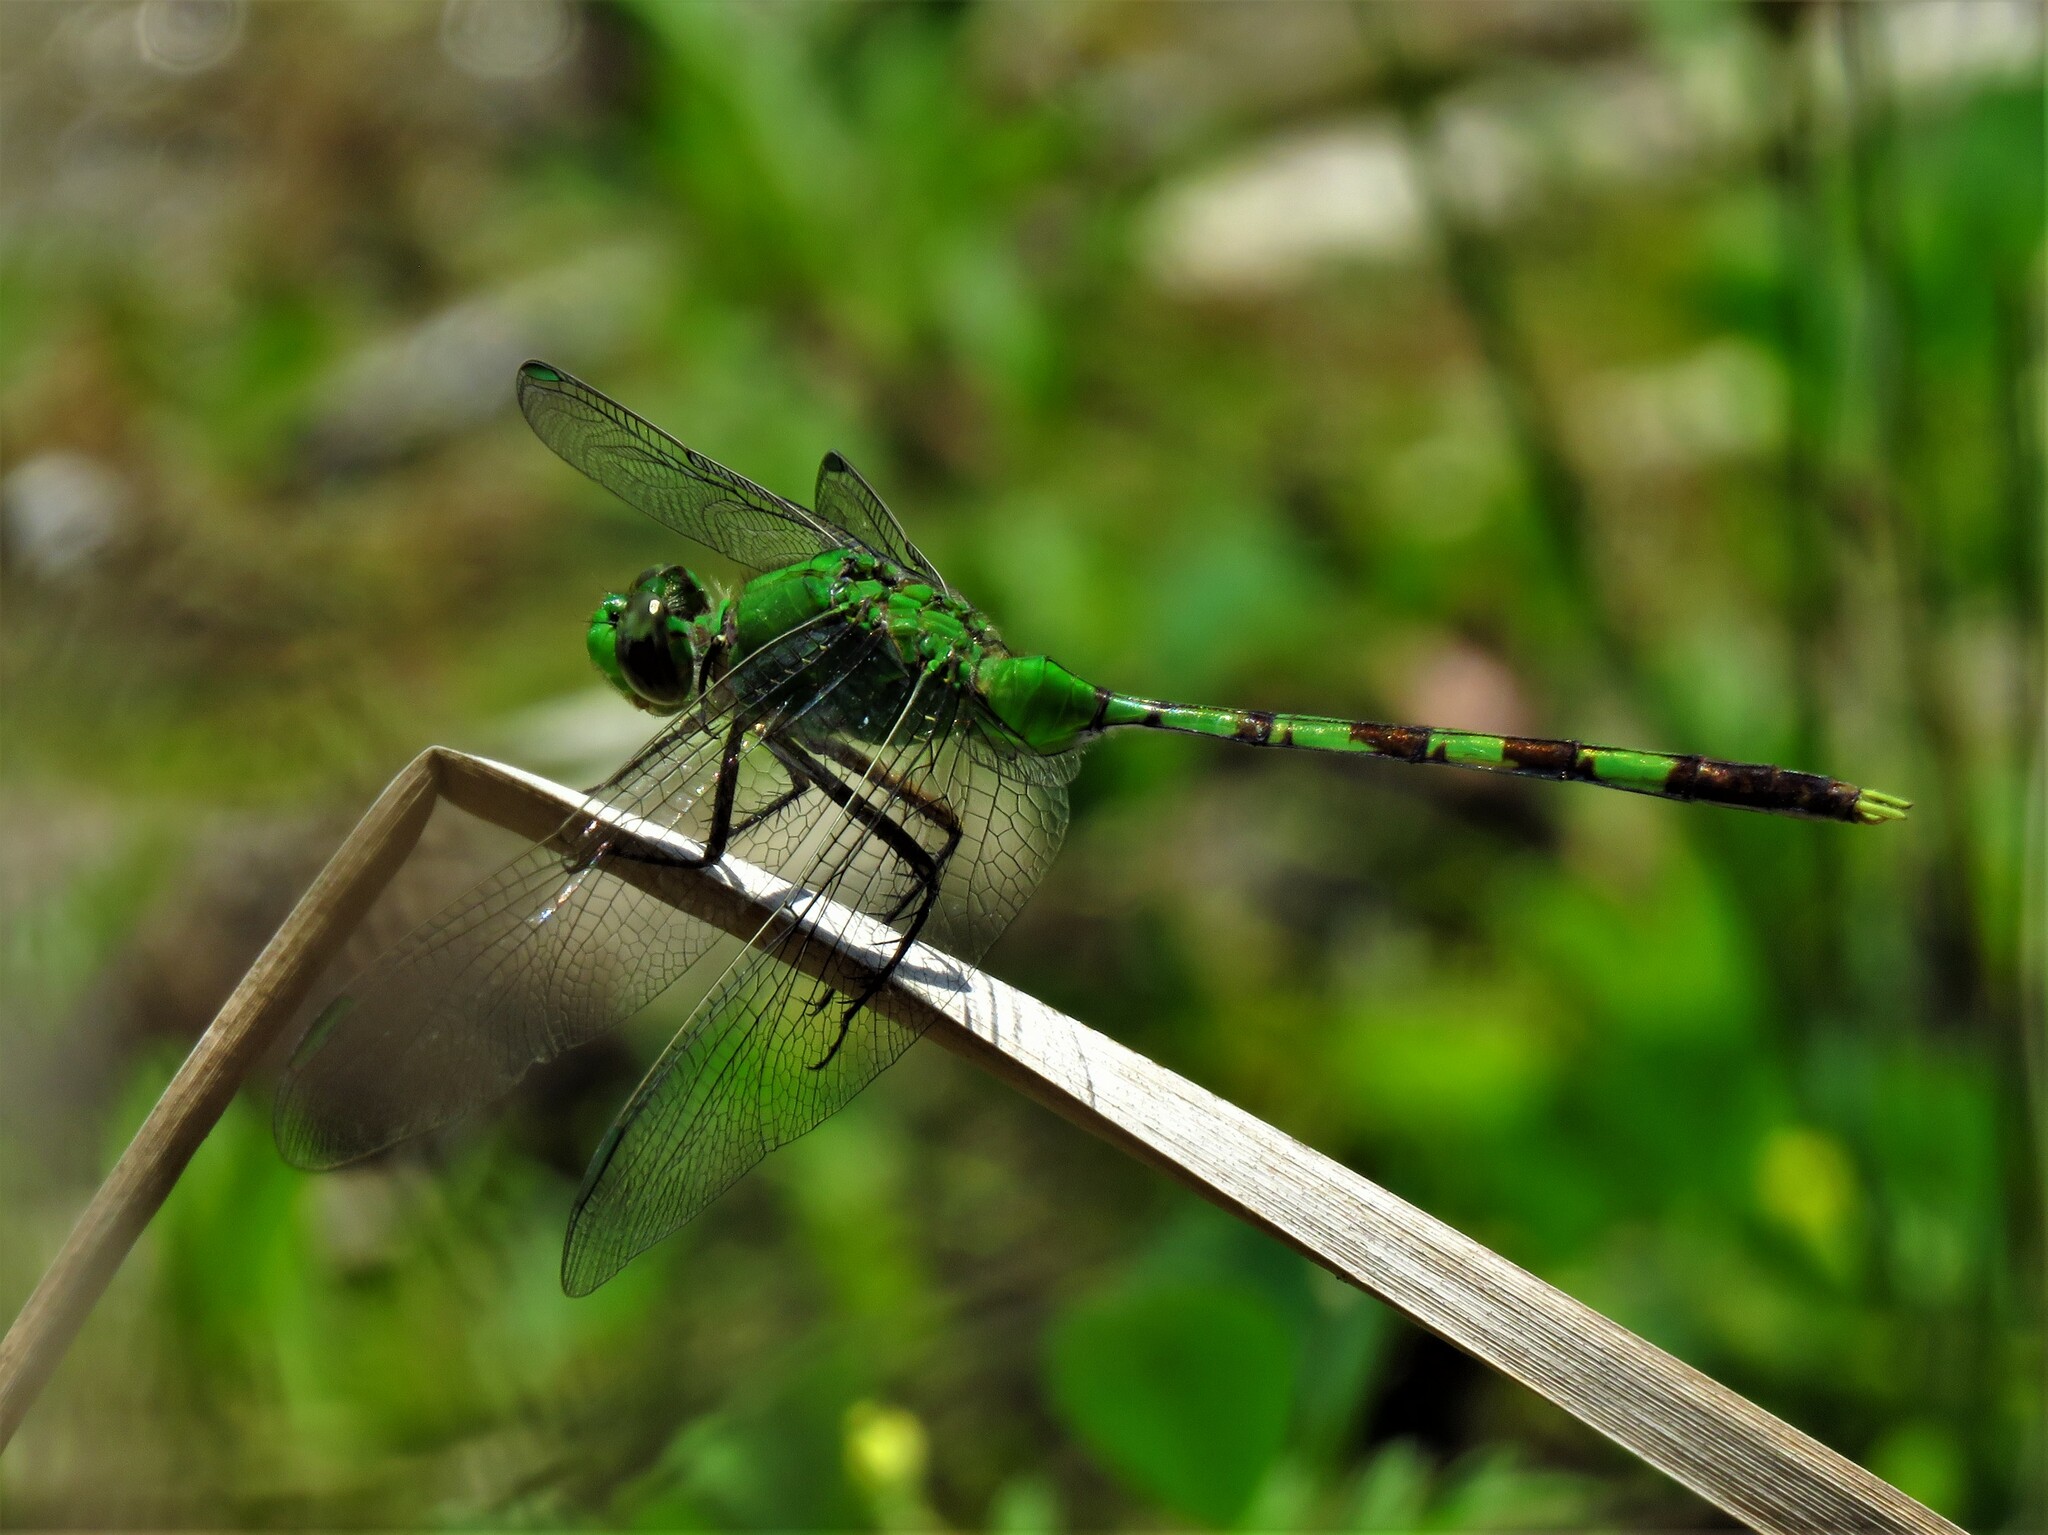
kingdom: Animalia
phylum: Arthropoda
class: Insecta
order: Odonata
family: Libellulidae
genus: Erythemis
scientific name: Erythemis vesiculosa
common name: Great pondhawk
